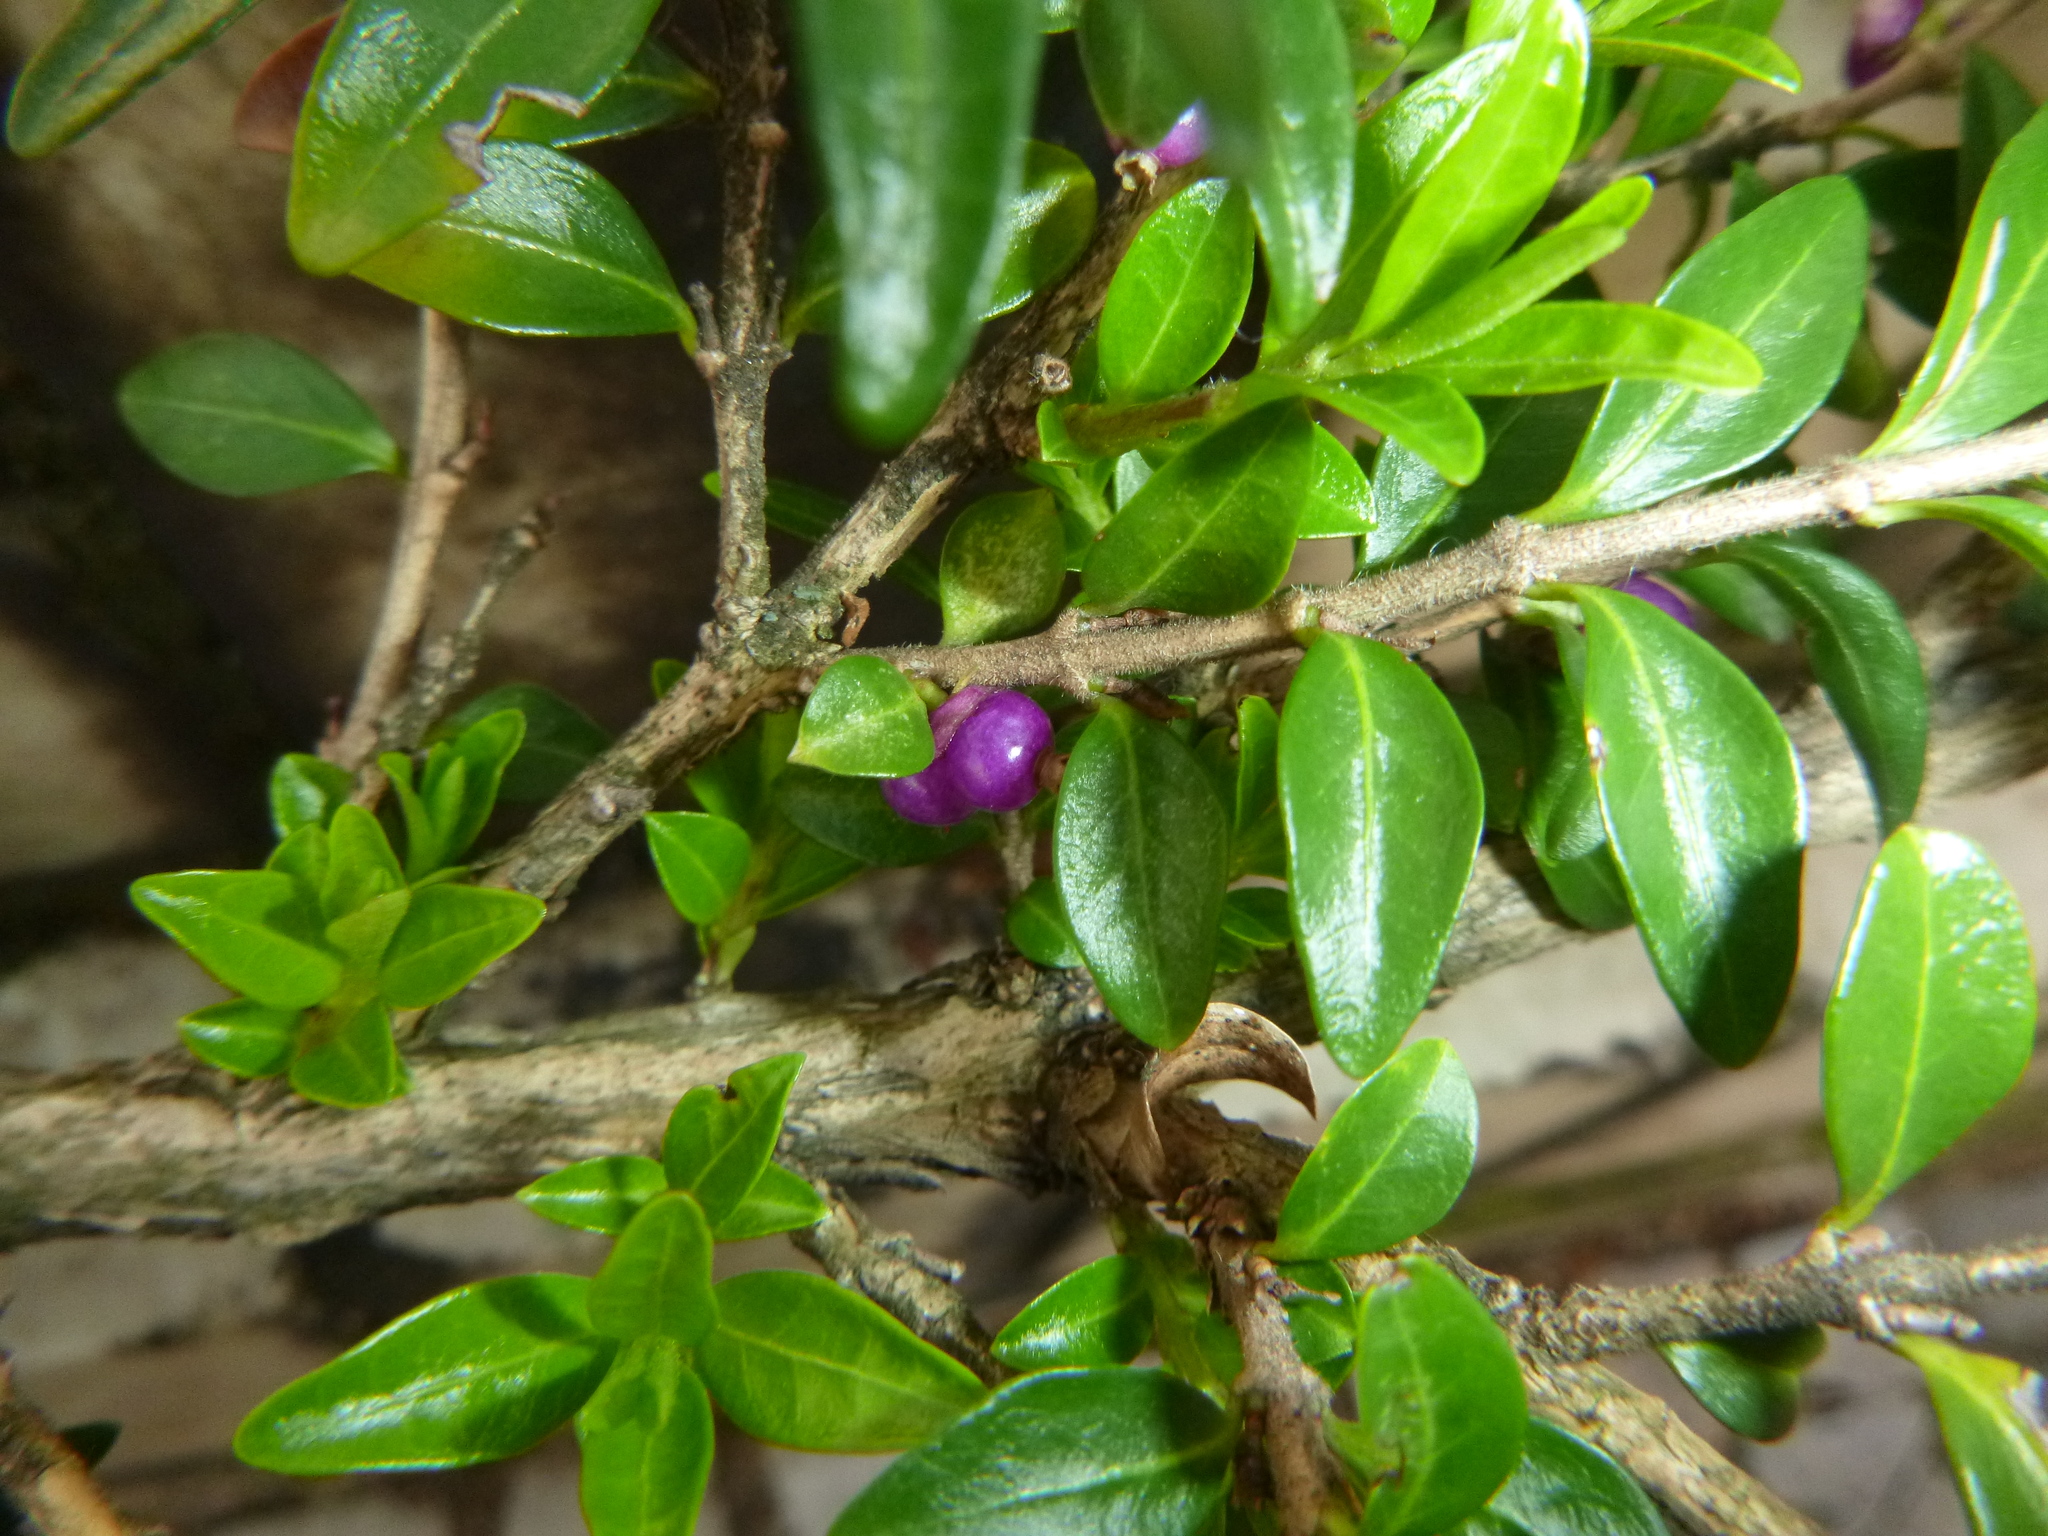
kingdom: Plantae
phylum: Tracheophyta
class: Magnoliopsida
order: Dipsacales
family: Caprifoliaceae
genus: Lonicera
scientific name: Lonicera pileata
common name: Box-leaved honeysuckle
